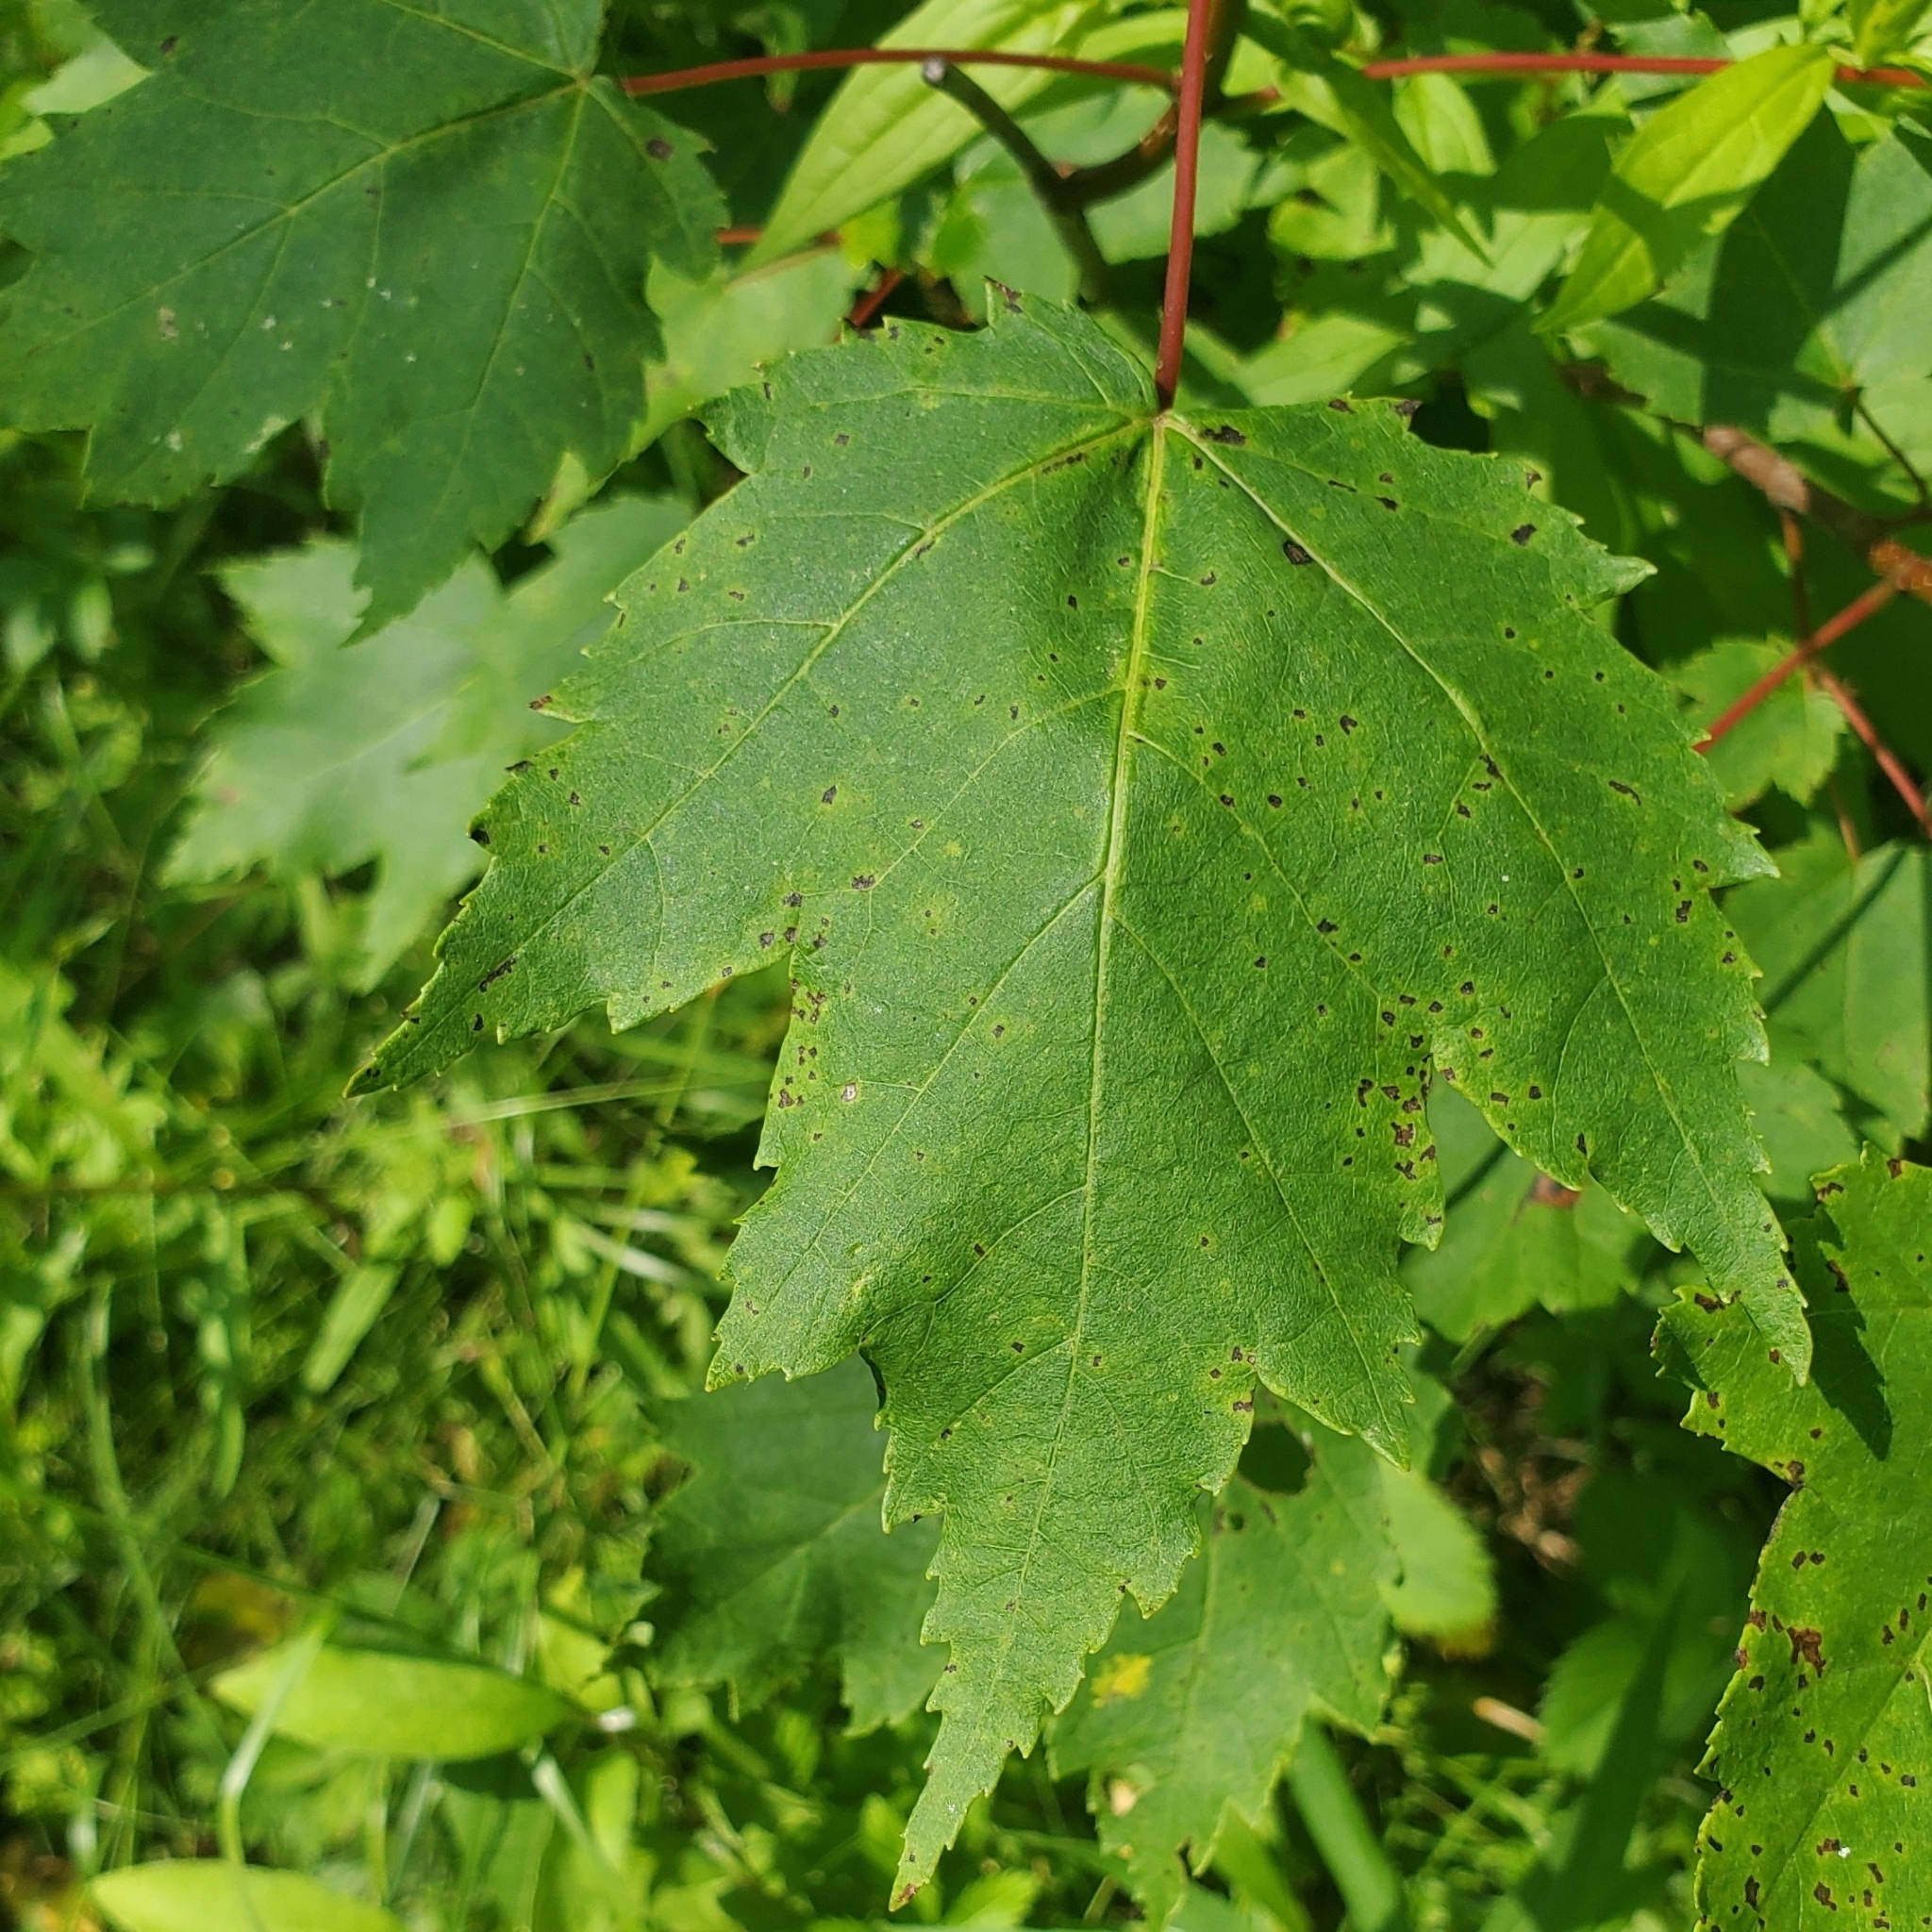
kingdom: Plantae
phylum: Tracheophyta
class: Magnoliopsida
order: Sapindales
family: Sapindaceae
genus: Acer
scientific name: Acer rubrum
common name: Red maple
